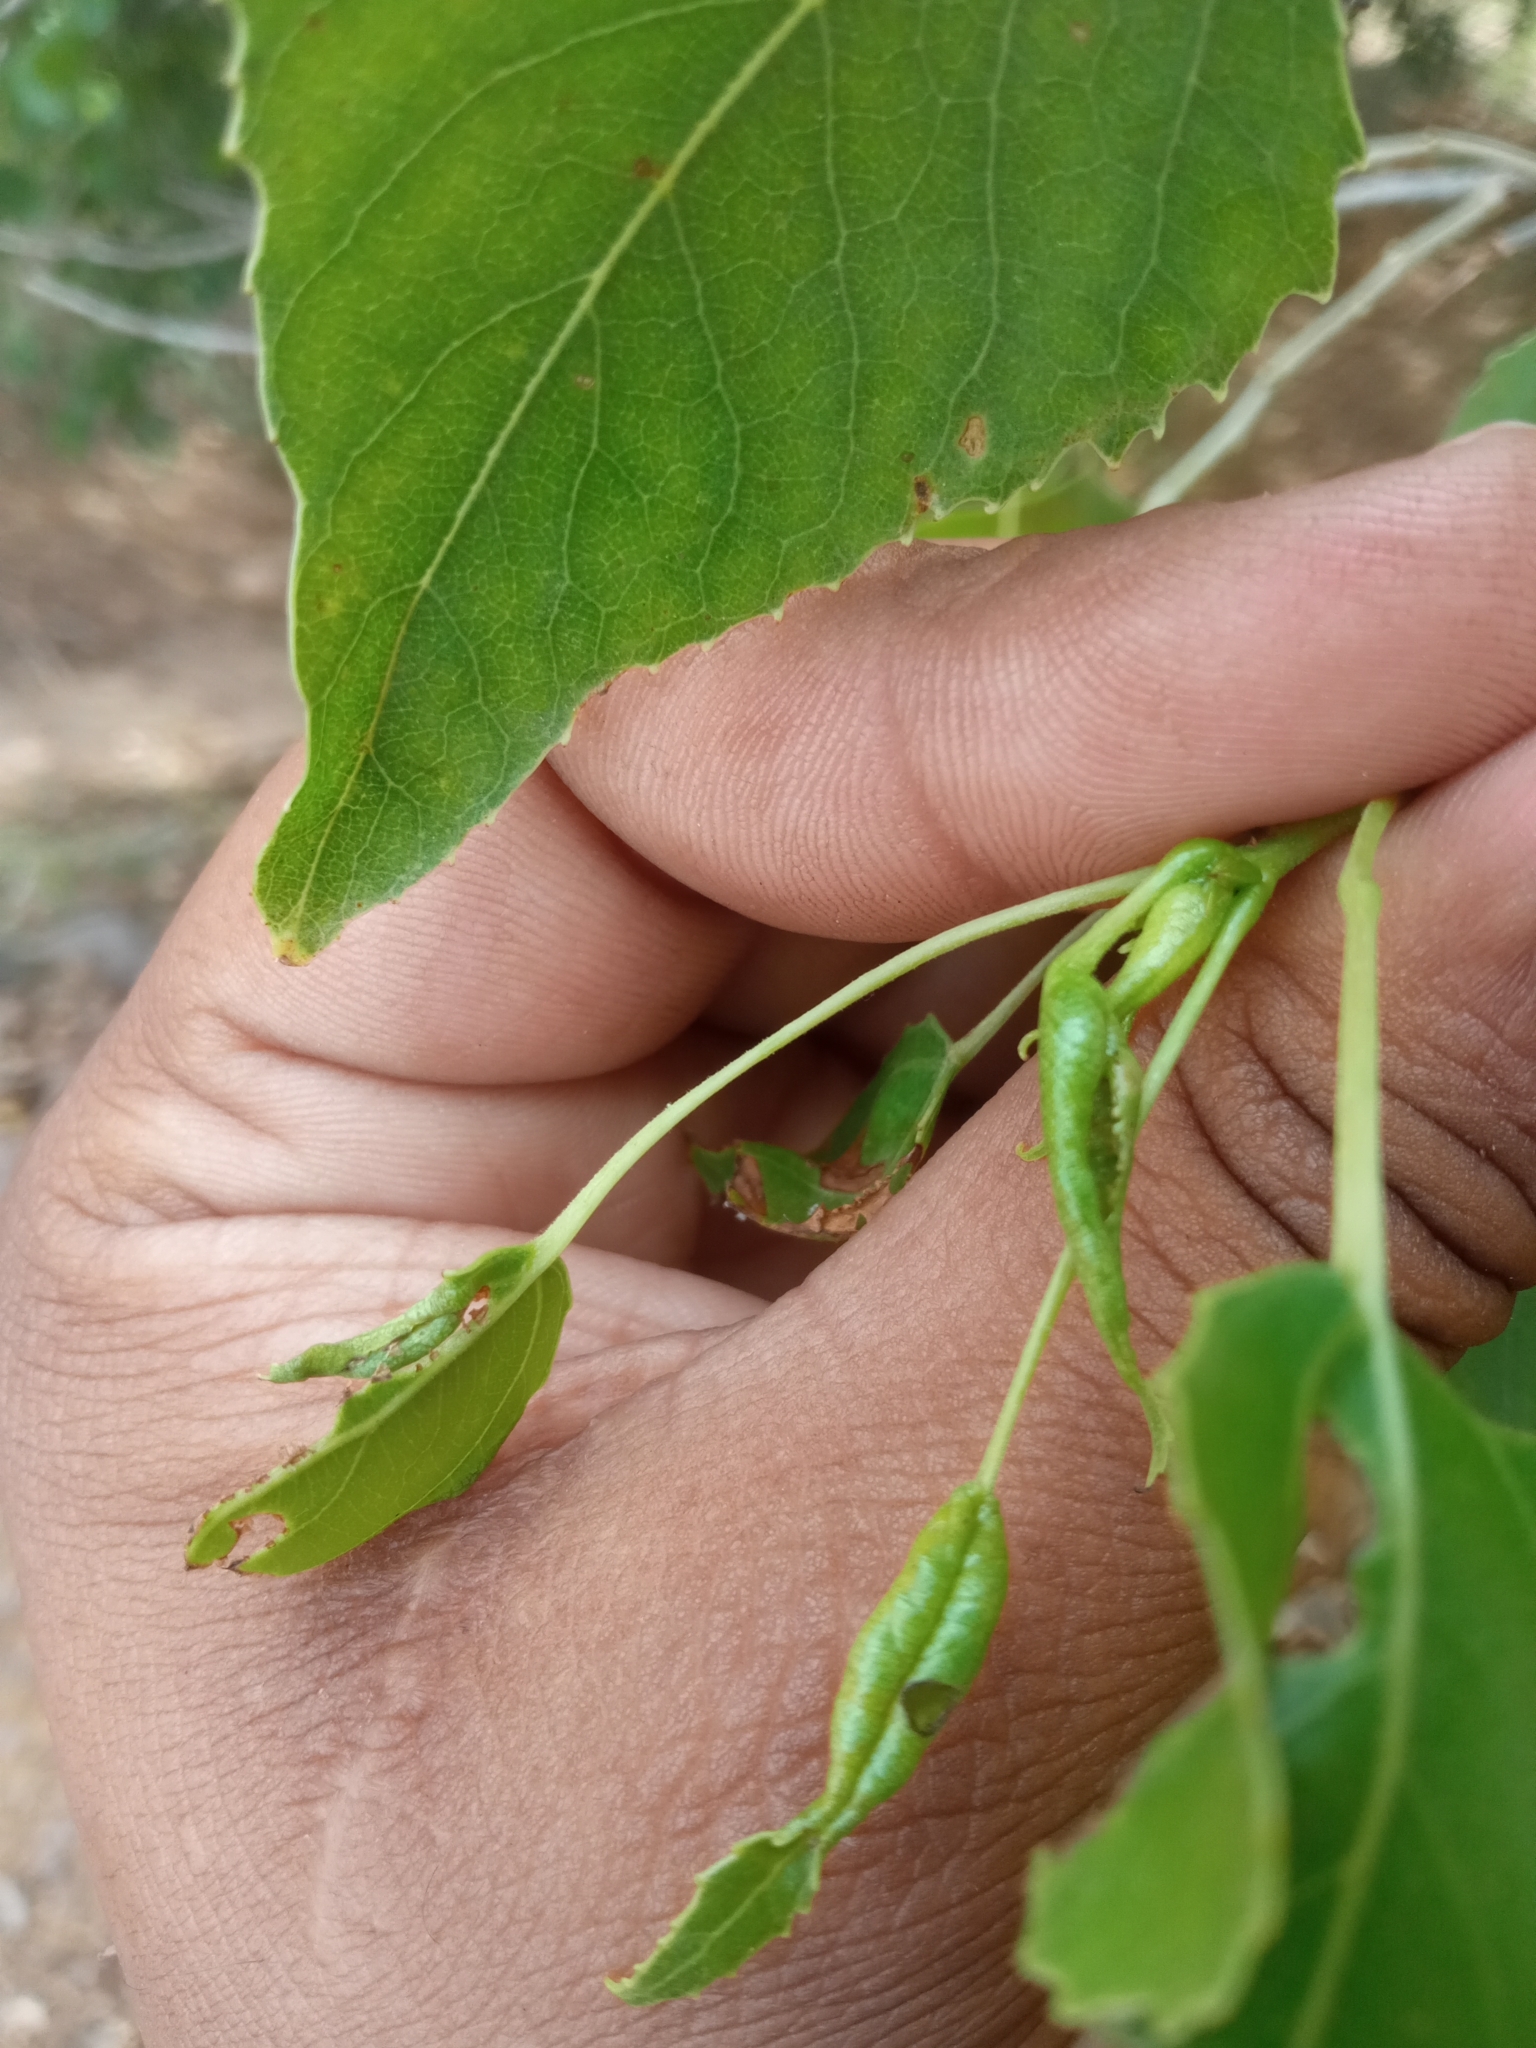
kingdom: Plantae
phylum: Tracheophyta
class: Magnoliopsida
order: Malpighiales
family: Salicaceae
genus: Populus
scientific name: Populus mexicana
